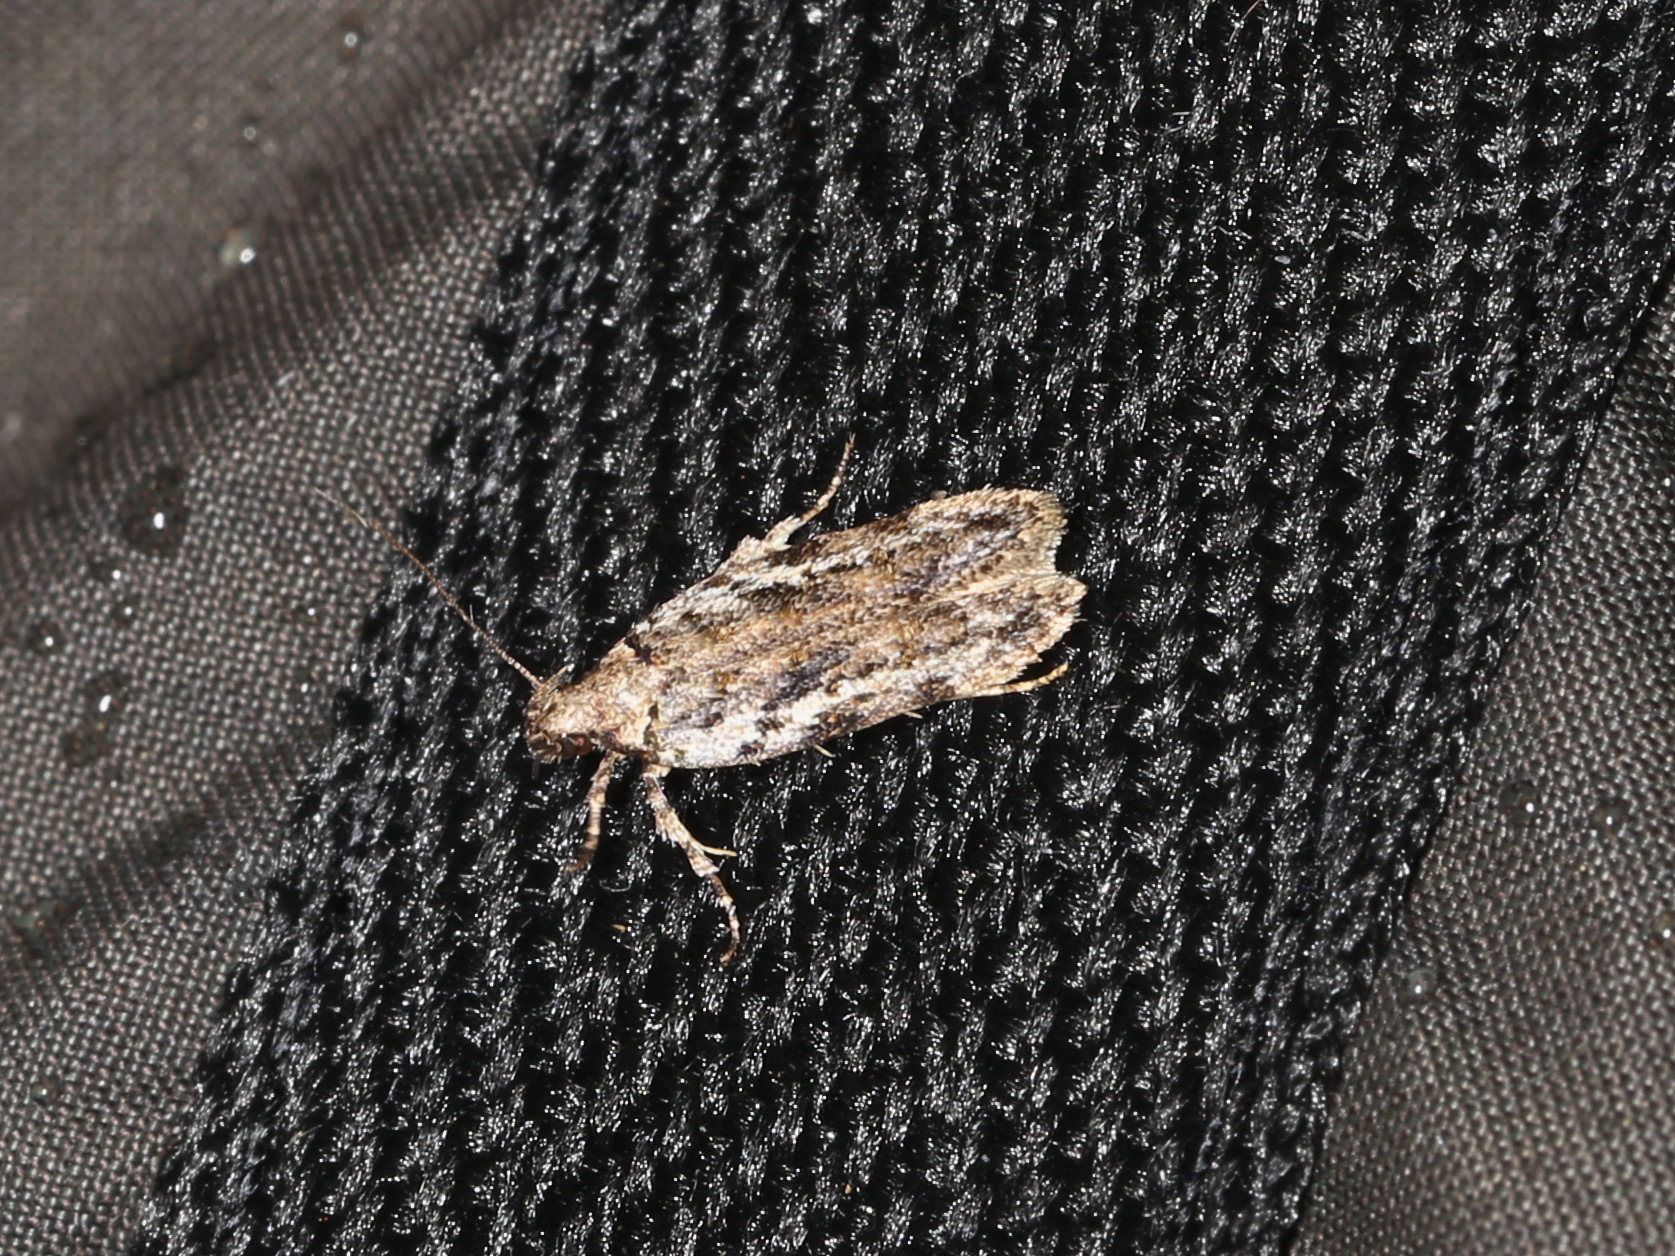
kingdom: Animalia
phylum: Arthropoda
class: Insecta
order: Lepidoptera
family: Gelechiidae
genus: Psoricoptera
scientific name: Psoricoptera gibbosella
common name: Humped crest
